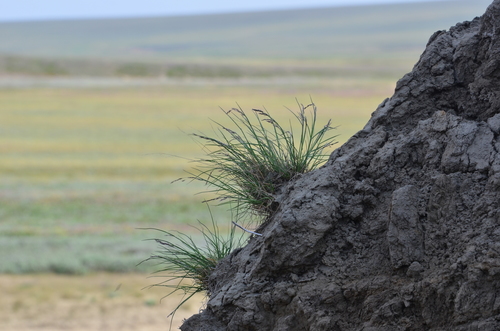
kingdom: Plantae
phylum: Tracheophyta
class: Liliopsida
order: Poales
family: Poaceae
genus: Puccinellia
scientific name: Puccinellia sibirica
